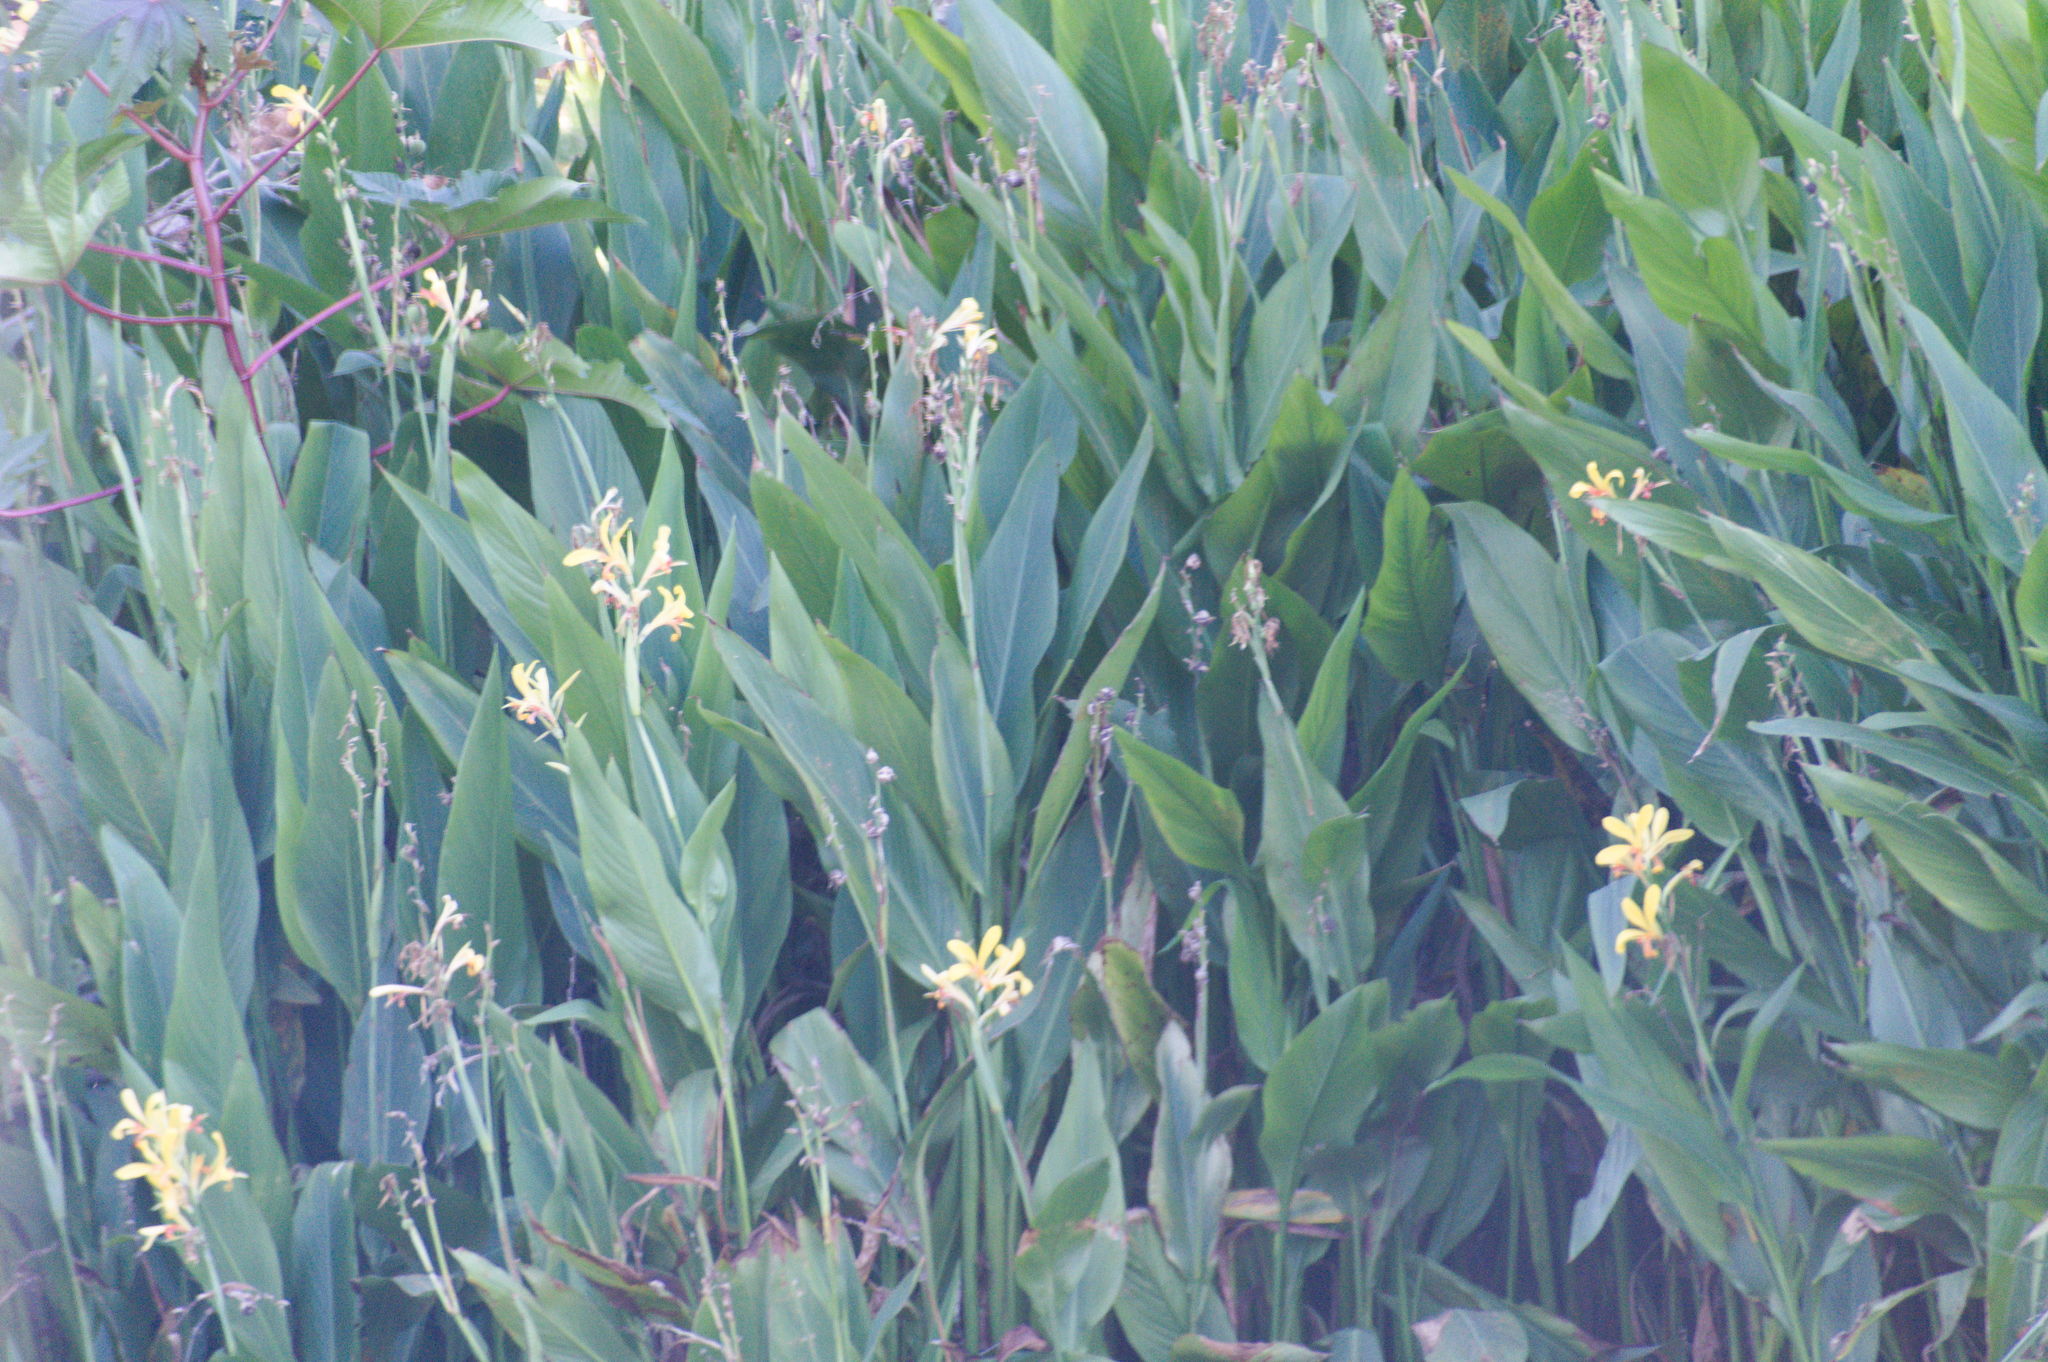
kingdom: Plantae
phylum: Tracheophyta
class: Liliopsida
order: Zingiberales
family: Cannaceae
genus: Canna
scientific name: Canna indica
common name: Indian shot
